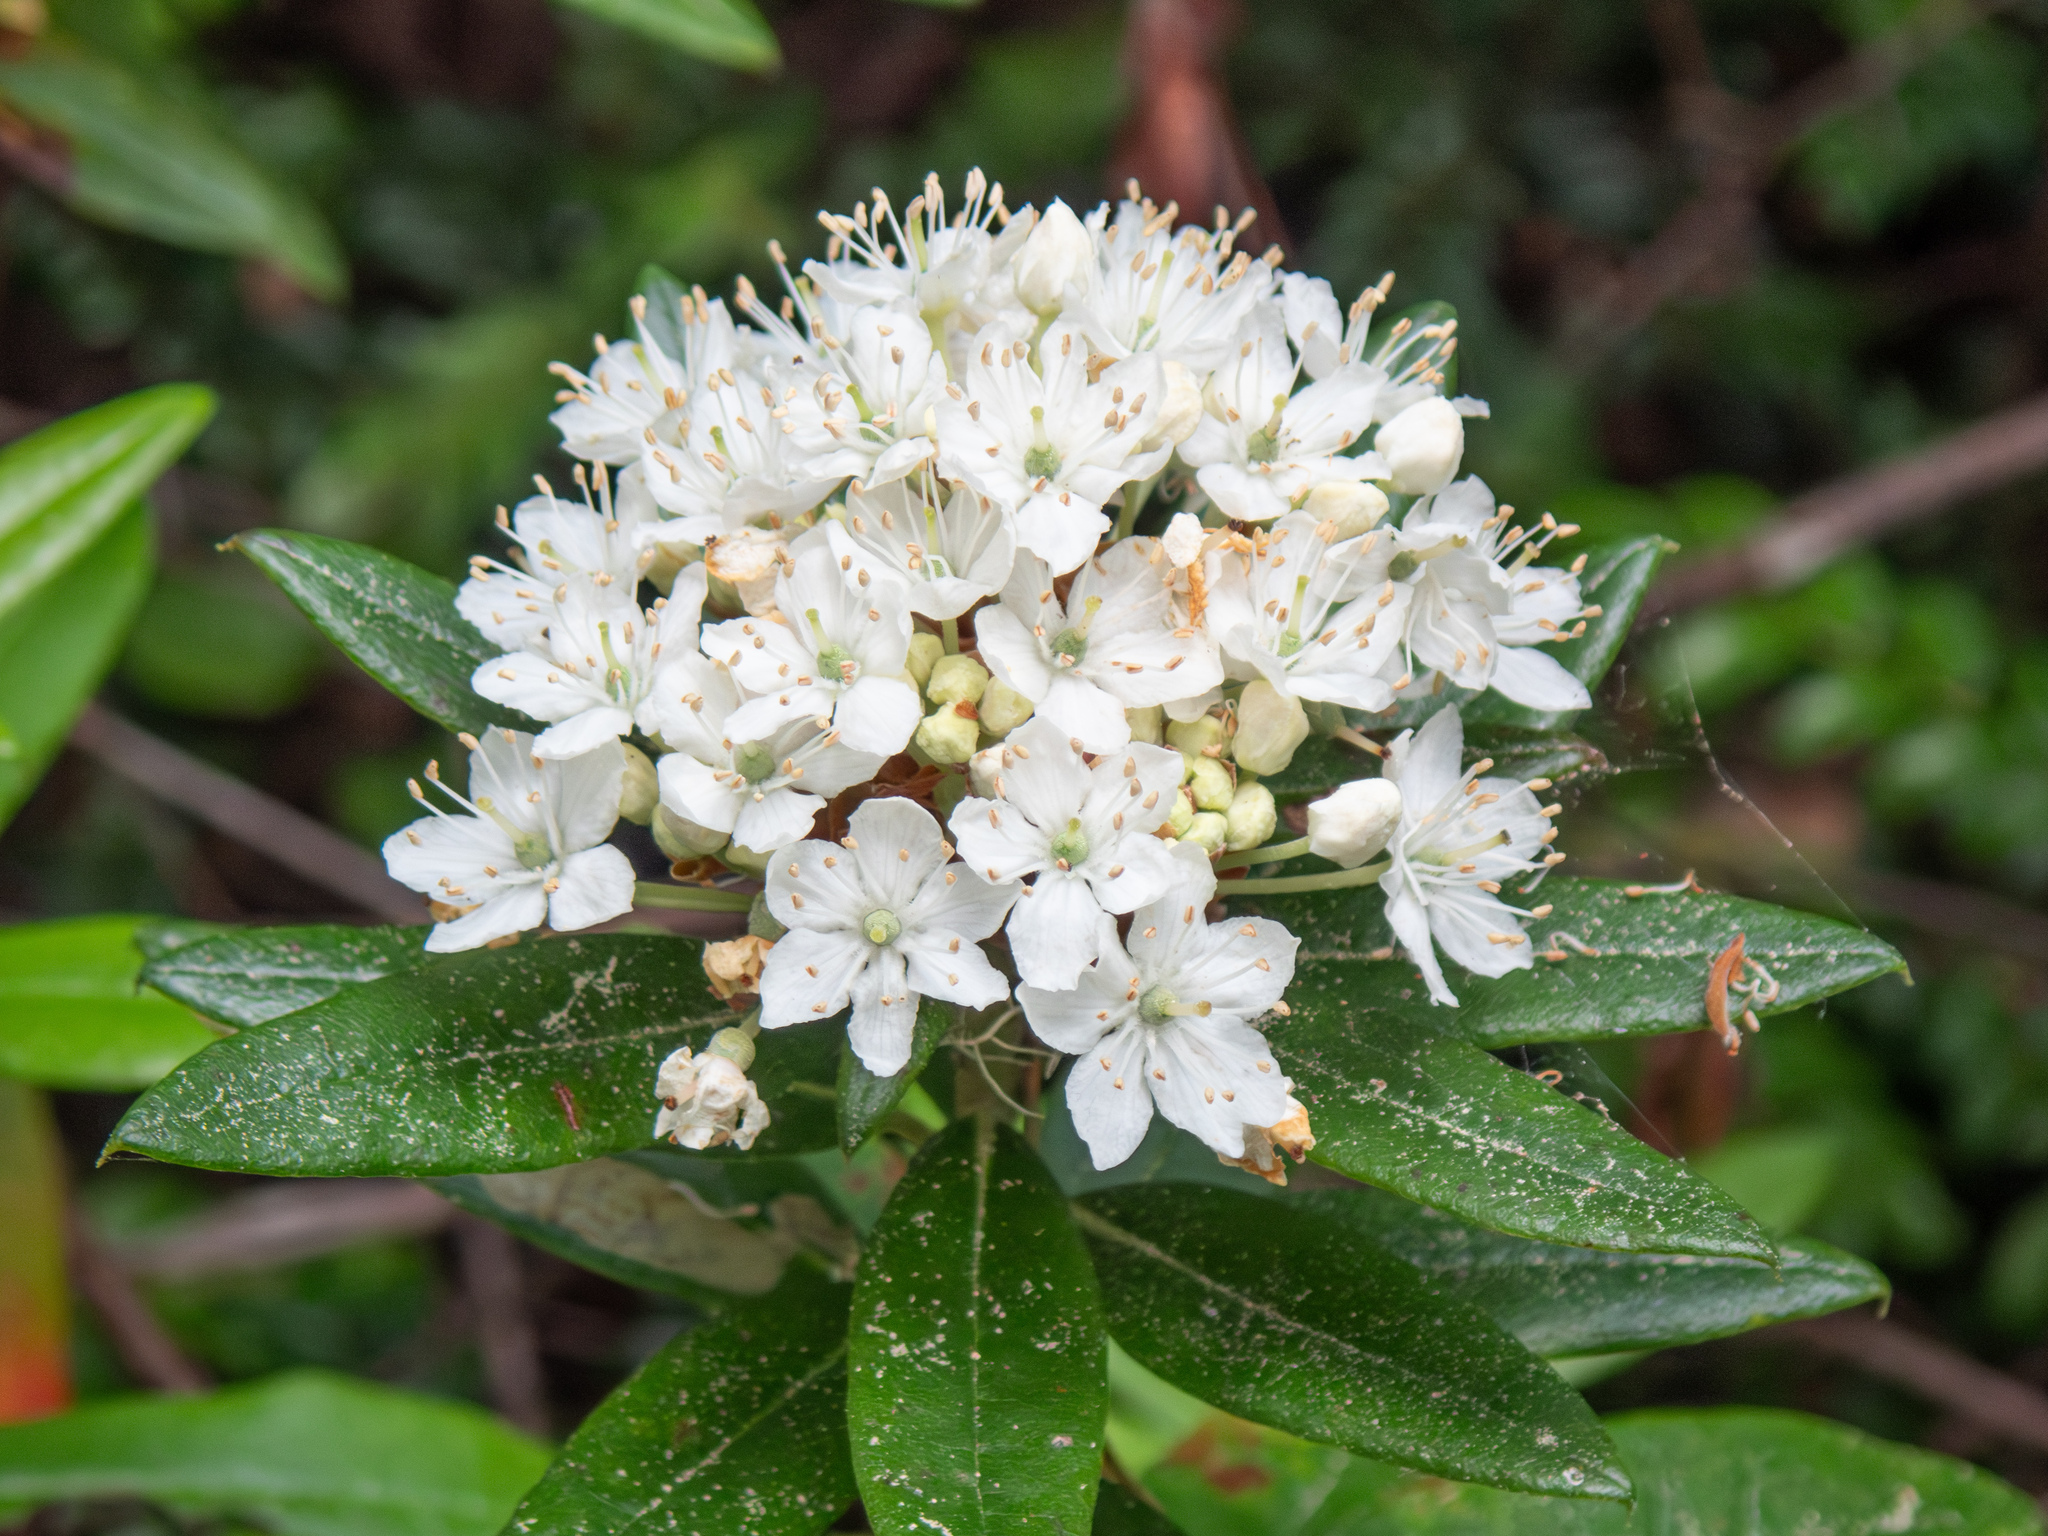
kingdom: Plantae
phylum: Tracheophyta
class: Magnoliopsida
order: Ericales
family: Ericaceae
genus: Rhododendron
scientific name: Rhododendron columbianum
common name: Western labrador tea
